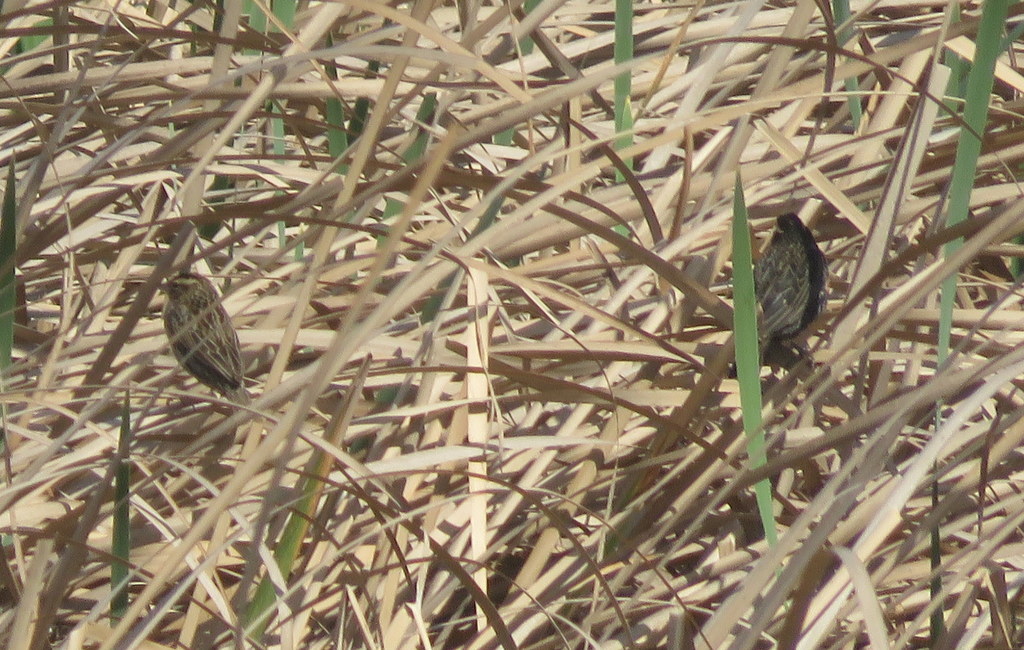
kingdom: Animalia
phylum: Chordata
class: Aves
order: Passeriformes
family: Icteridae
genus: Sturnella
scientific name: Sturnella superciliaris
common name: White-browed blackbird
